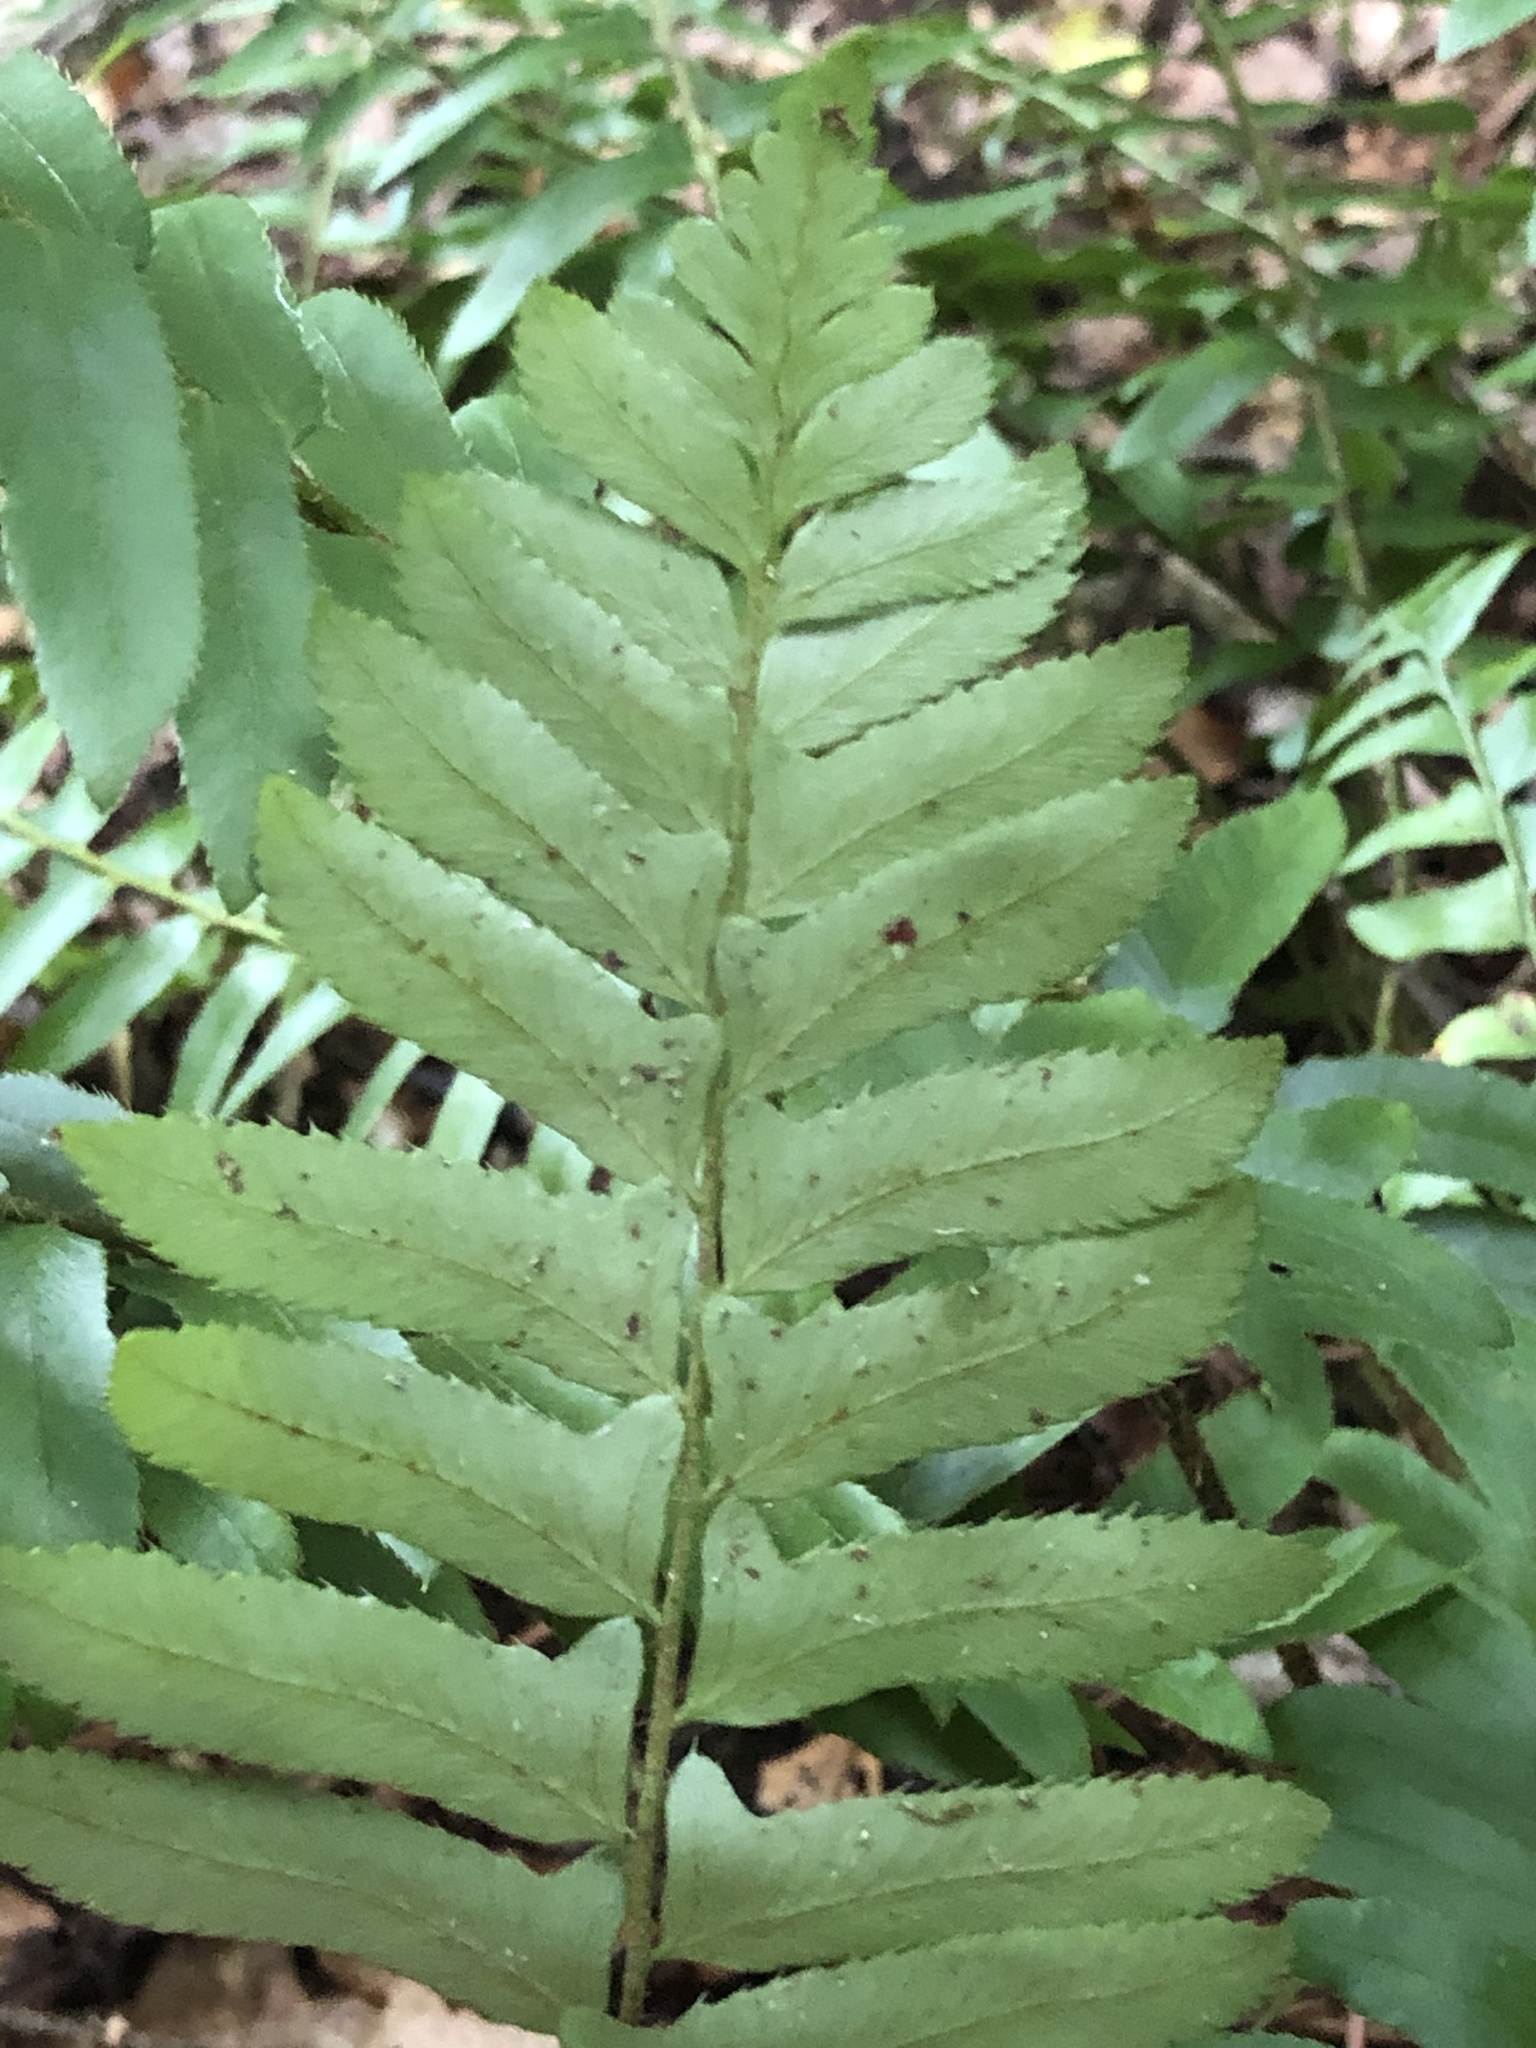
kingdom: Plantae
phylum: Tracheophyta
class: Polypodiopsida
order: Polypodiales
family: Dryopteridaceae
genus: Polystichum
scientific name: Polystichum acrostichoides
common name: Christmas fern
